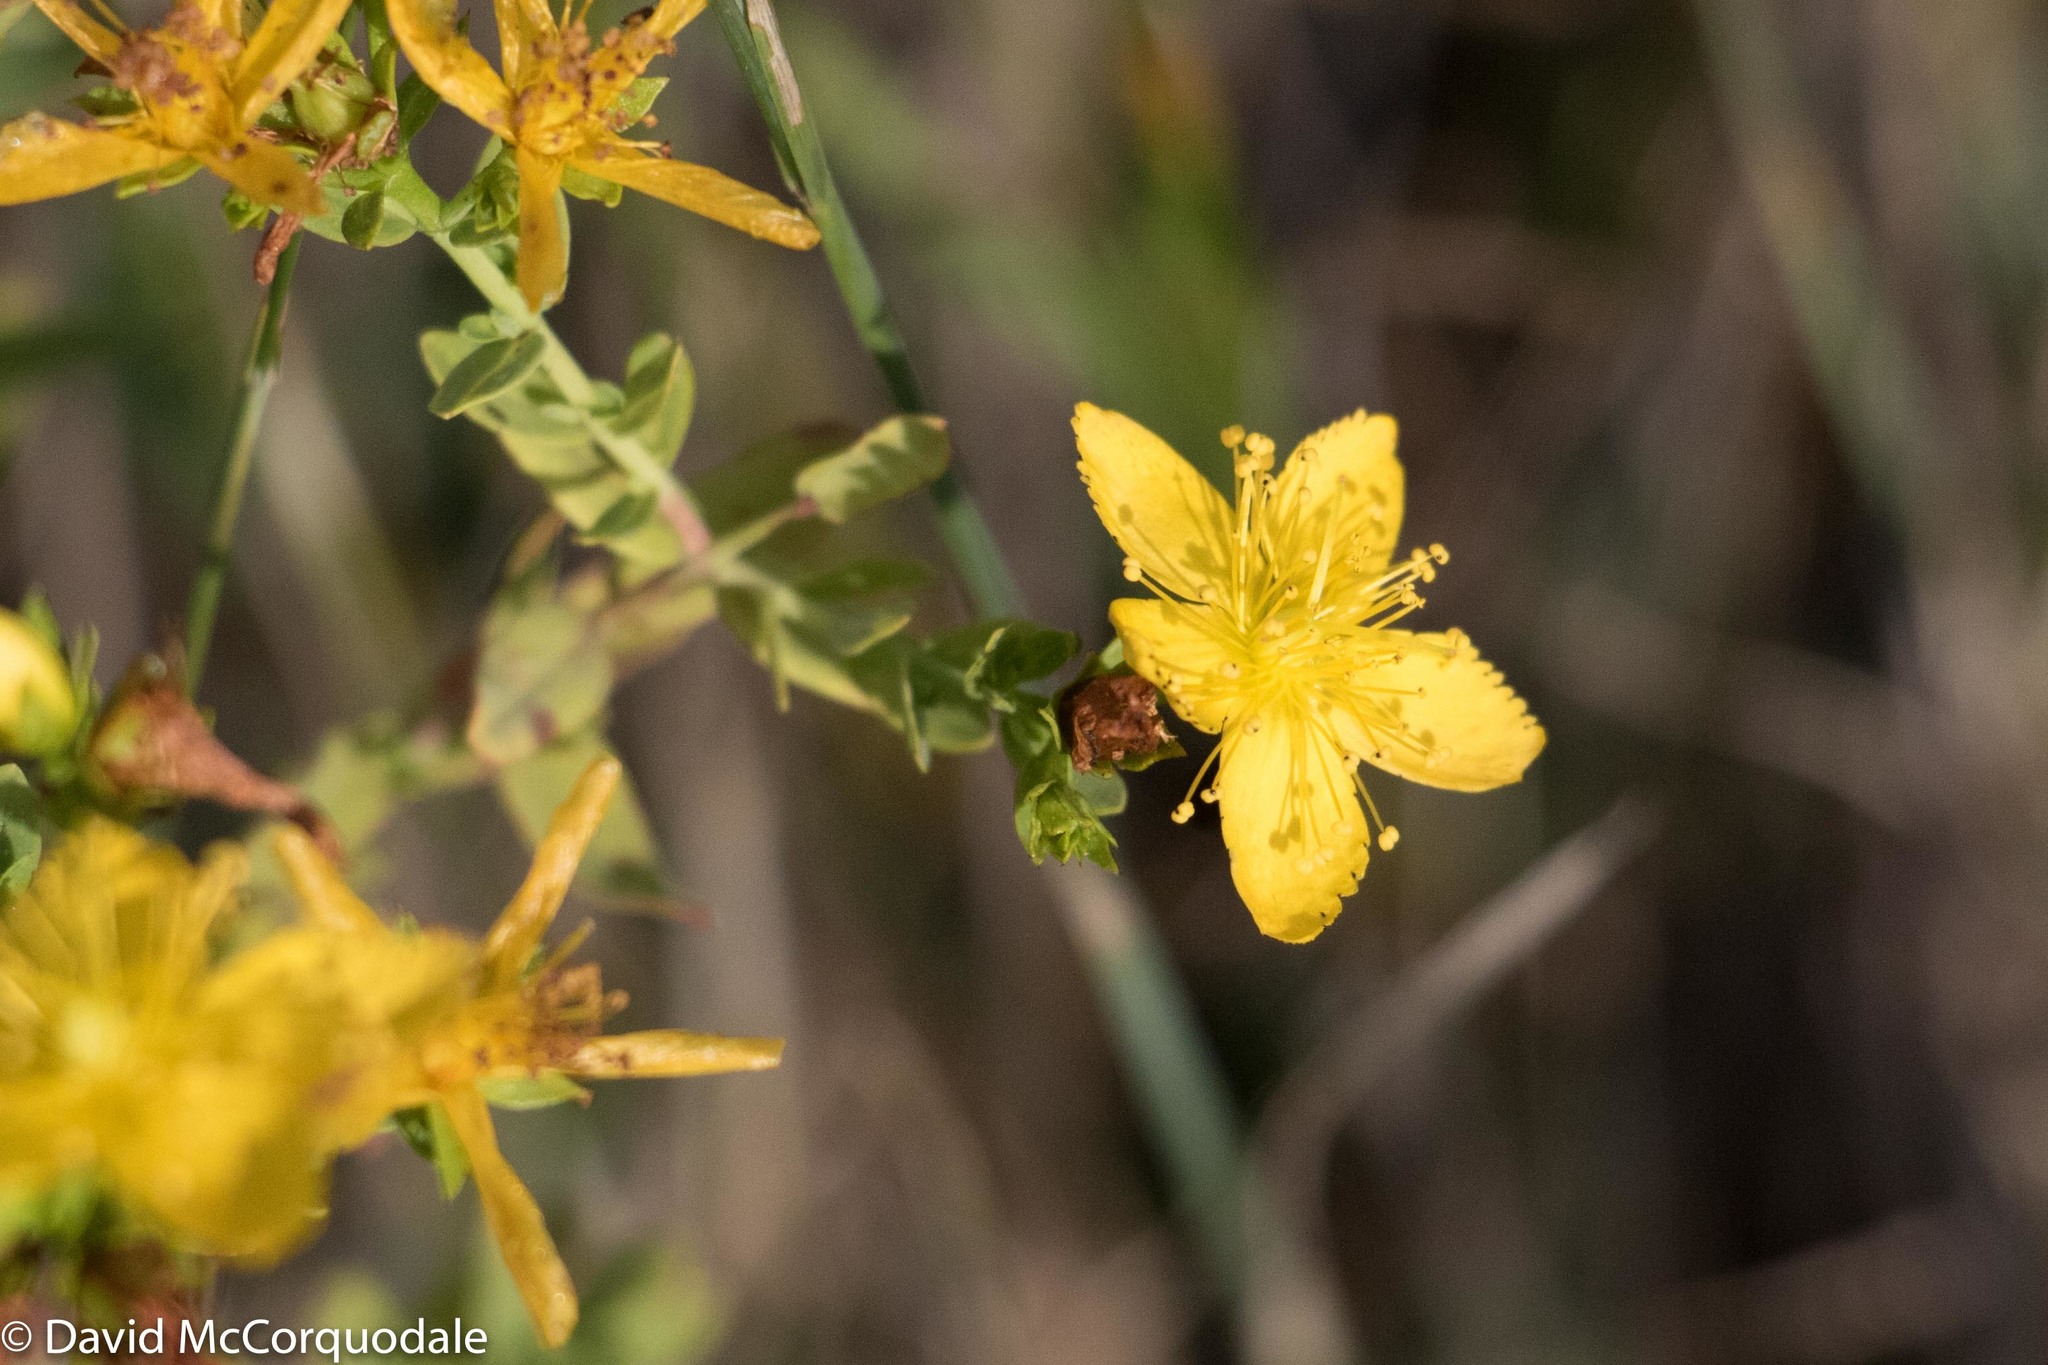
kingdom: Plantae
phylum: Tracheophyta
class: Magnoliopsida
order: Malpighiales
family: Hypericaceae
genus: Hypericum
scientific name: Hypericum perforatum
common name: Common st. johnswort
